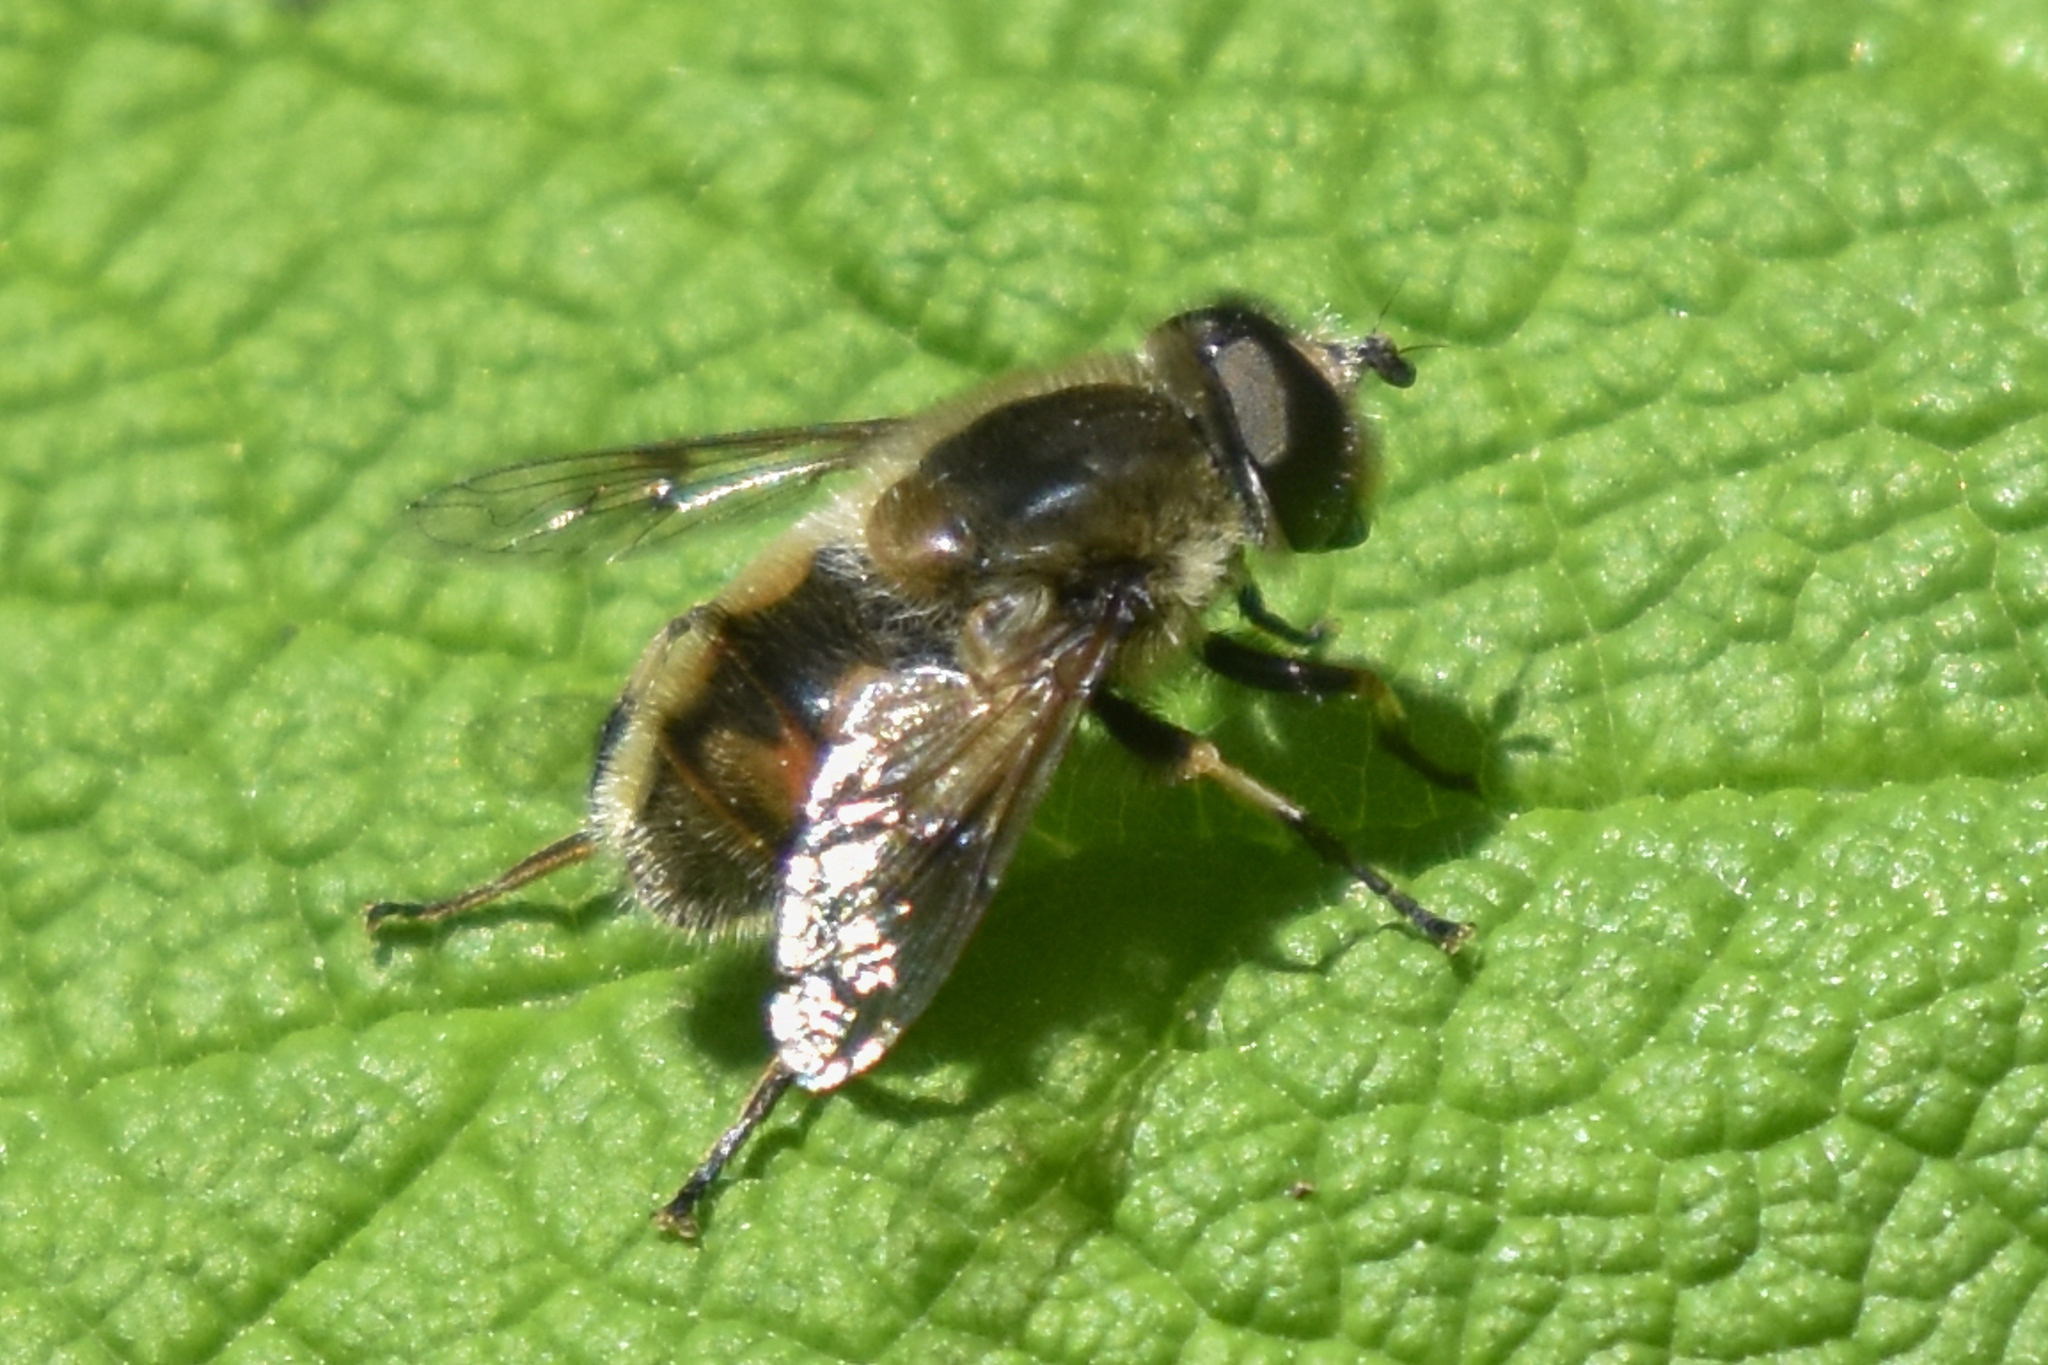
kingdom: Animalia
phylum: Arthropoda
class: Insecta
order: Diptera
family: Syrphidae
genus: Eristalis
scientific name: Eristalis anthophorina
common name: Orange-spotted drone fly
